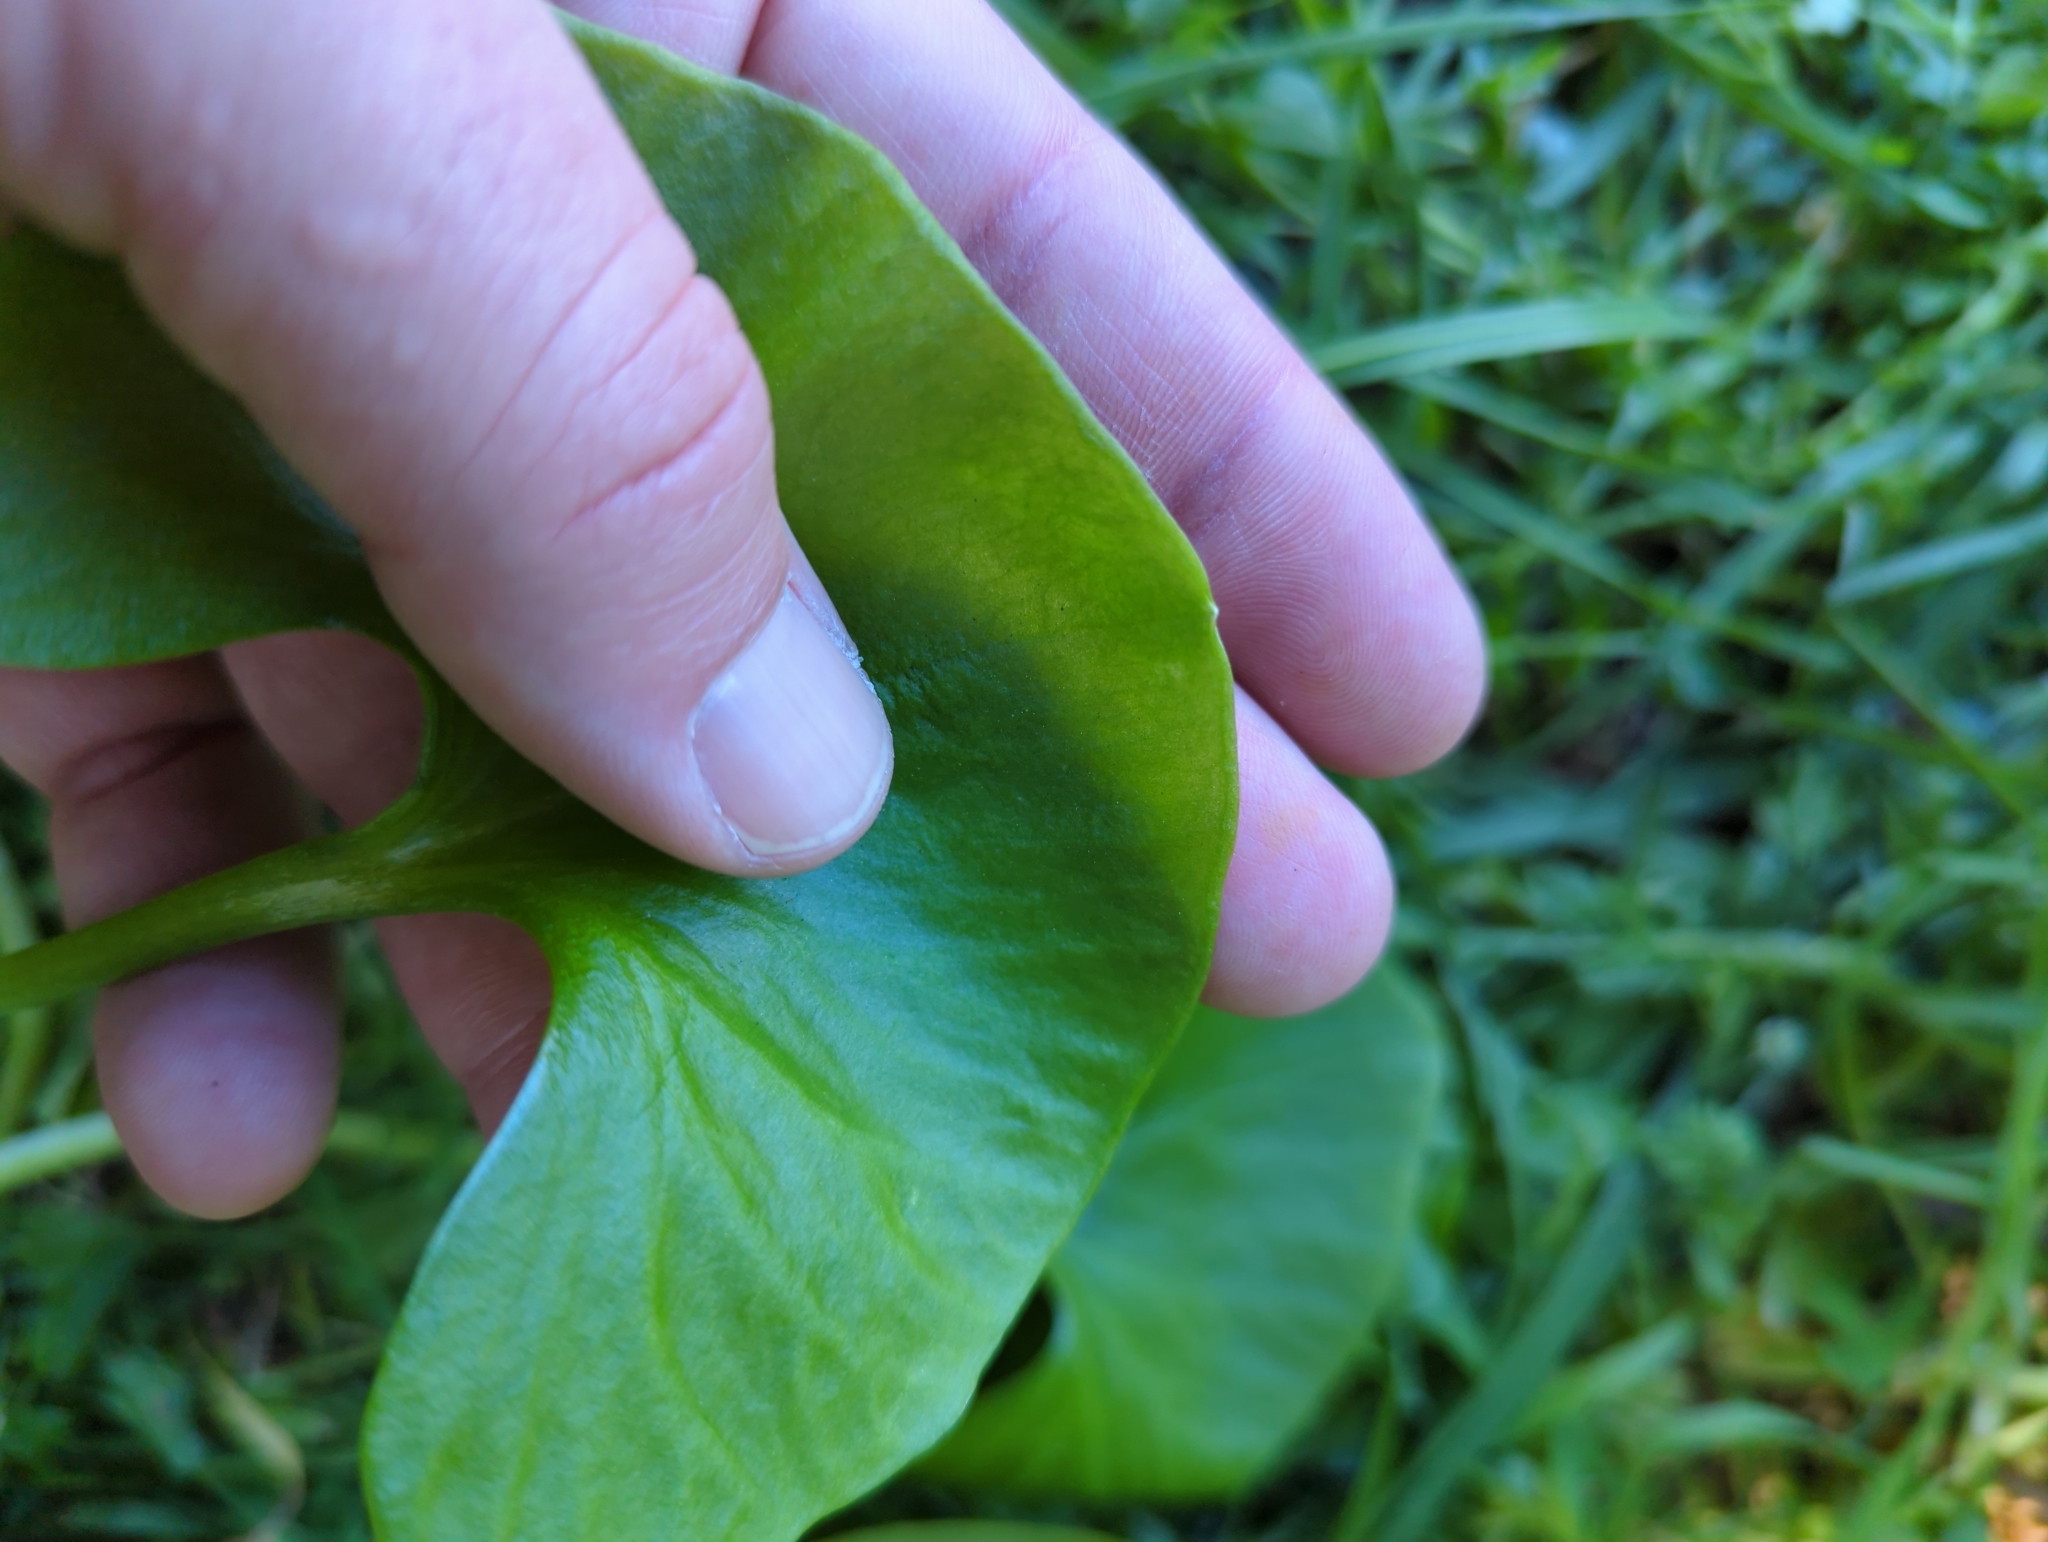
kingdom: Plantae
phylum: Tracheophyta
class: Magnoliopsida
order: Caryophyllales
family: Montiaceae
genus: Claytonia
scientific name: Claytonia perfoliata
